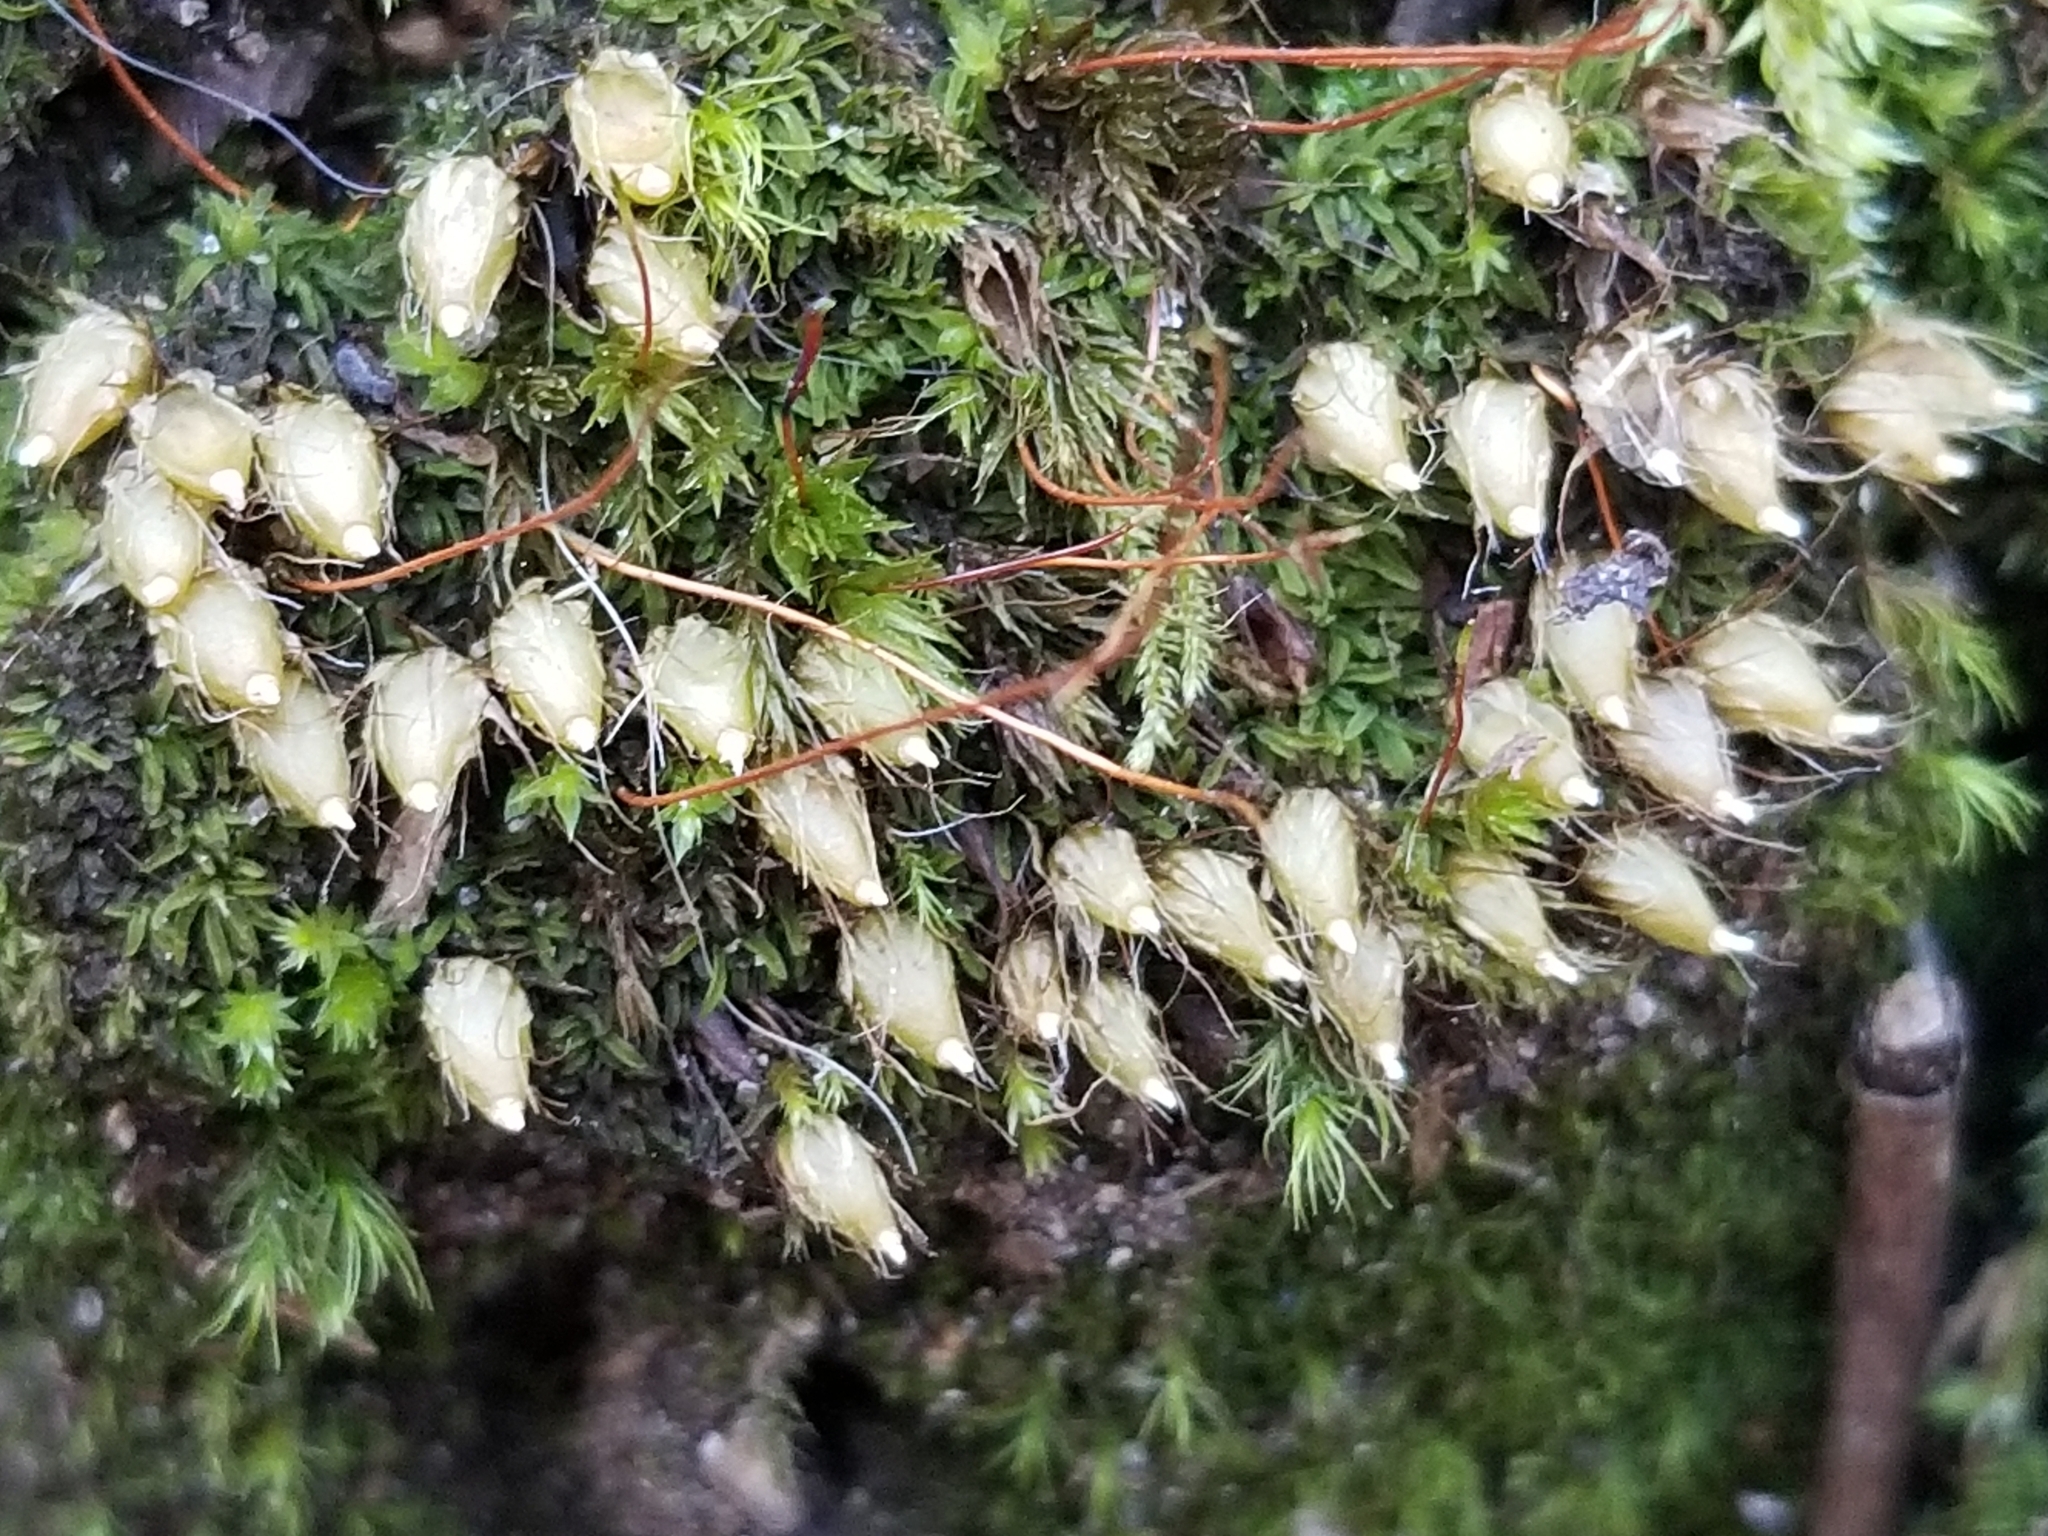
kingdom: Plantae
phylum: Bryophyta
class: Bryopsida
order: Diphysciales
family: Diphysciaceae
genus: Diphyscium
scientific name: Diphyscium foliosum
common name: Nut moss
